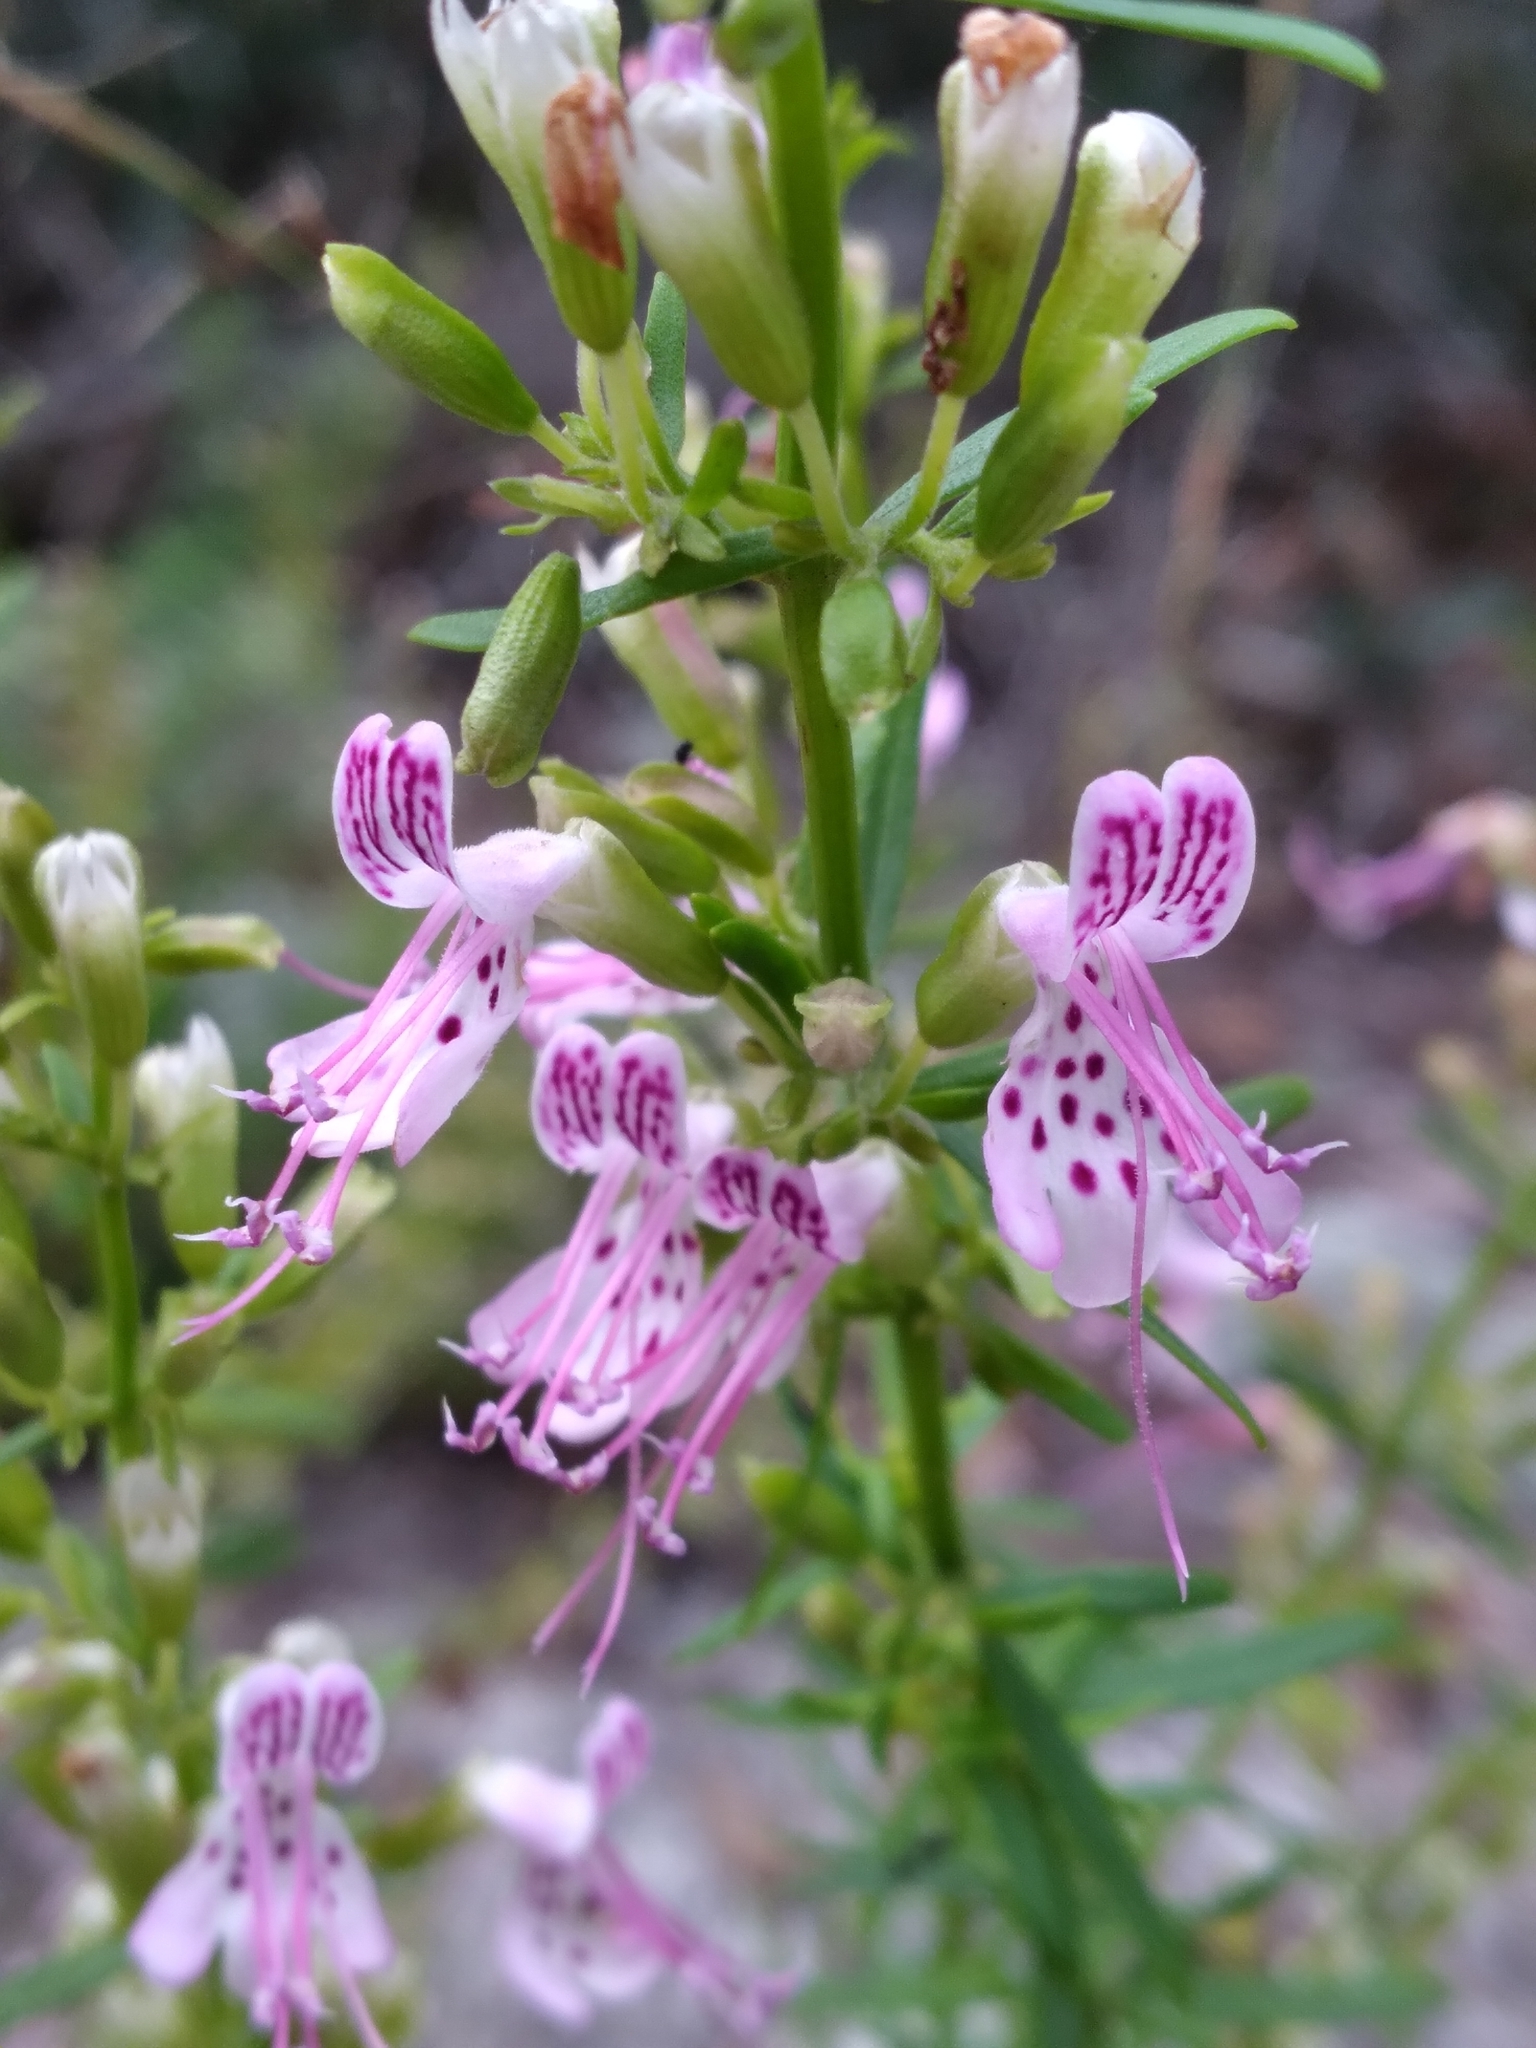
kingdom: Plantae
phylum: Tracheophyta
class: Magnoliopsida
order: Lamiales
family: Lamiaceae
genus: Dicerandra
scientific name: Dicerandra frutescens
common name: Scrub-mint
